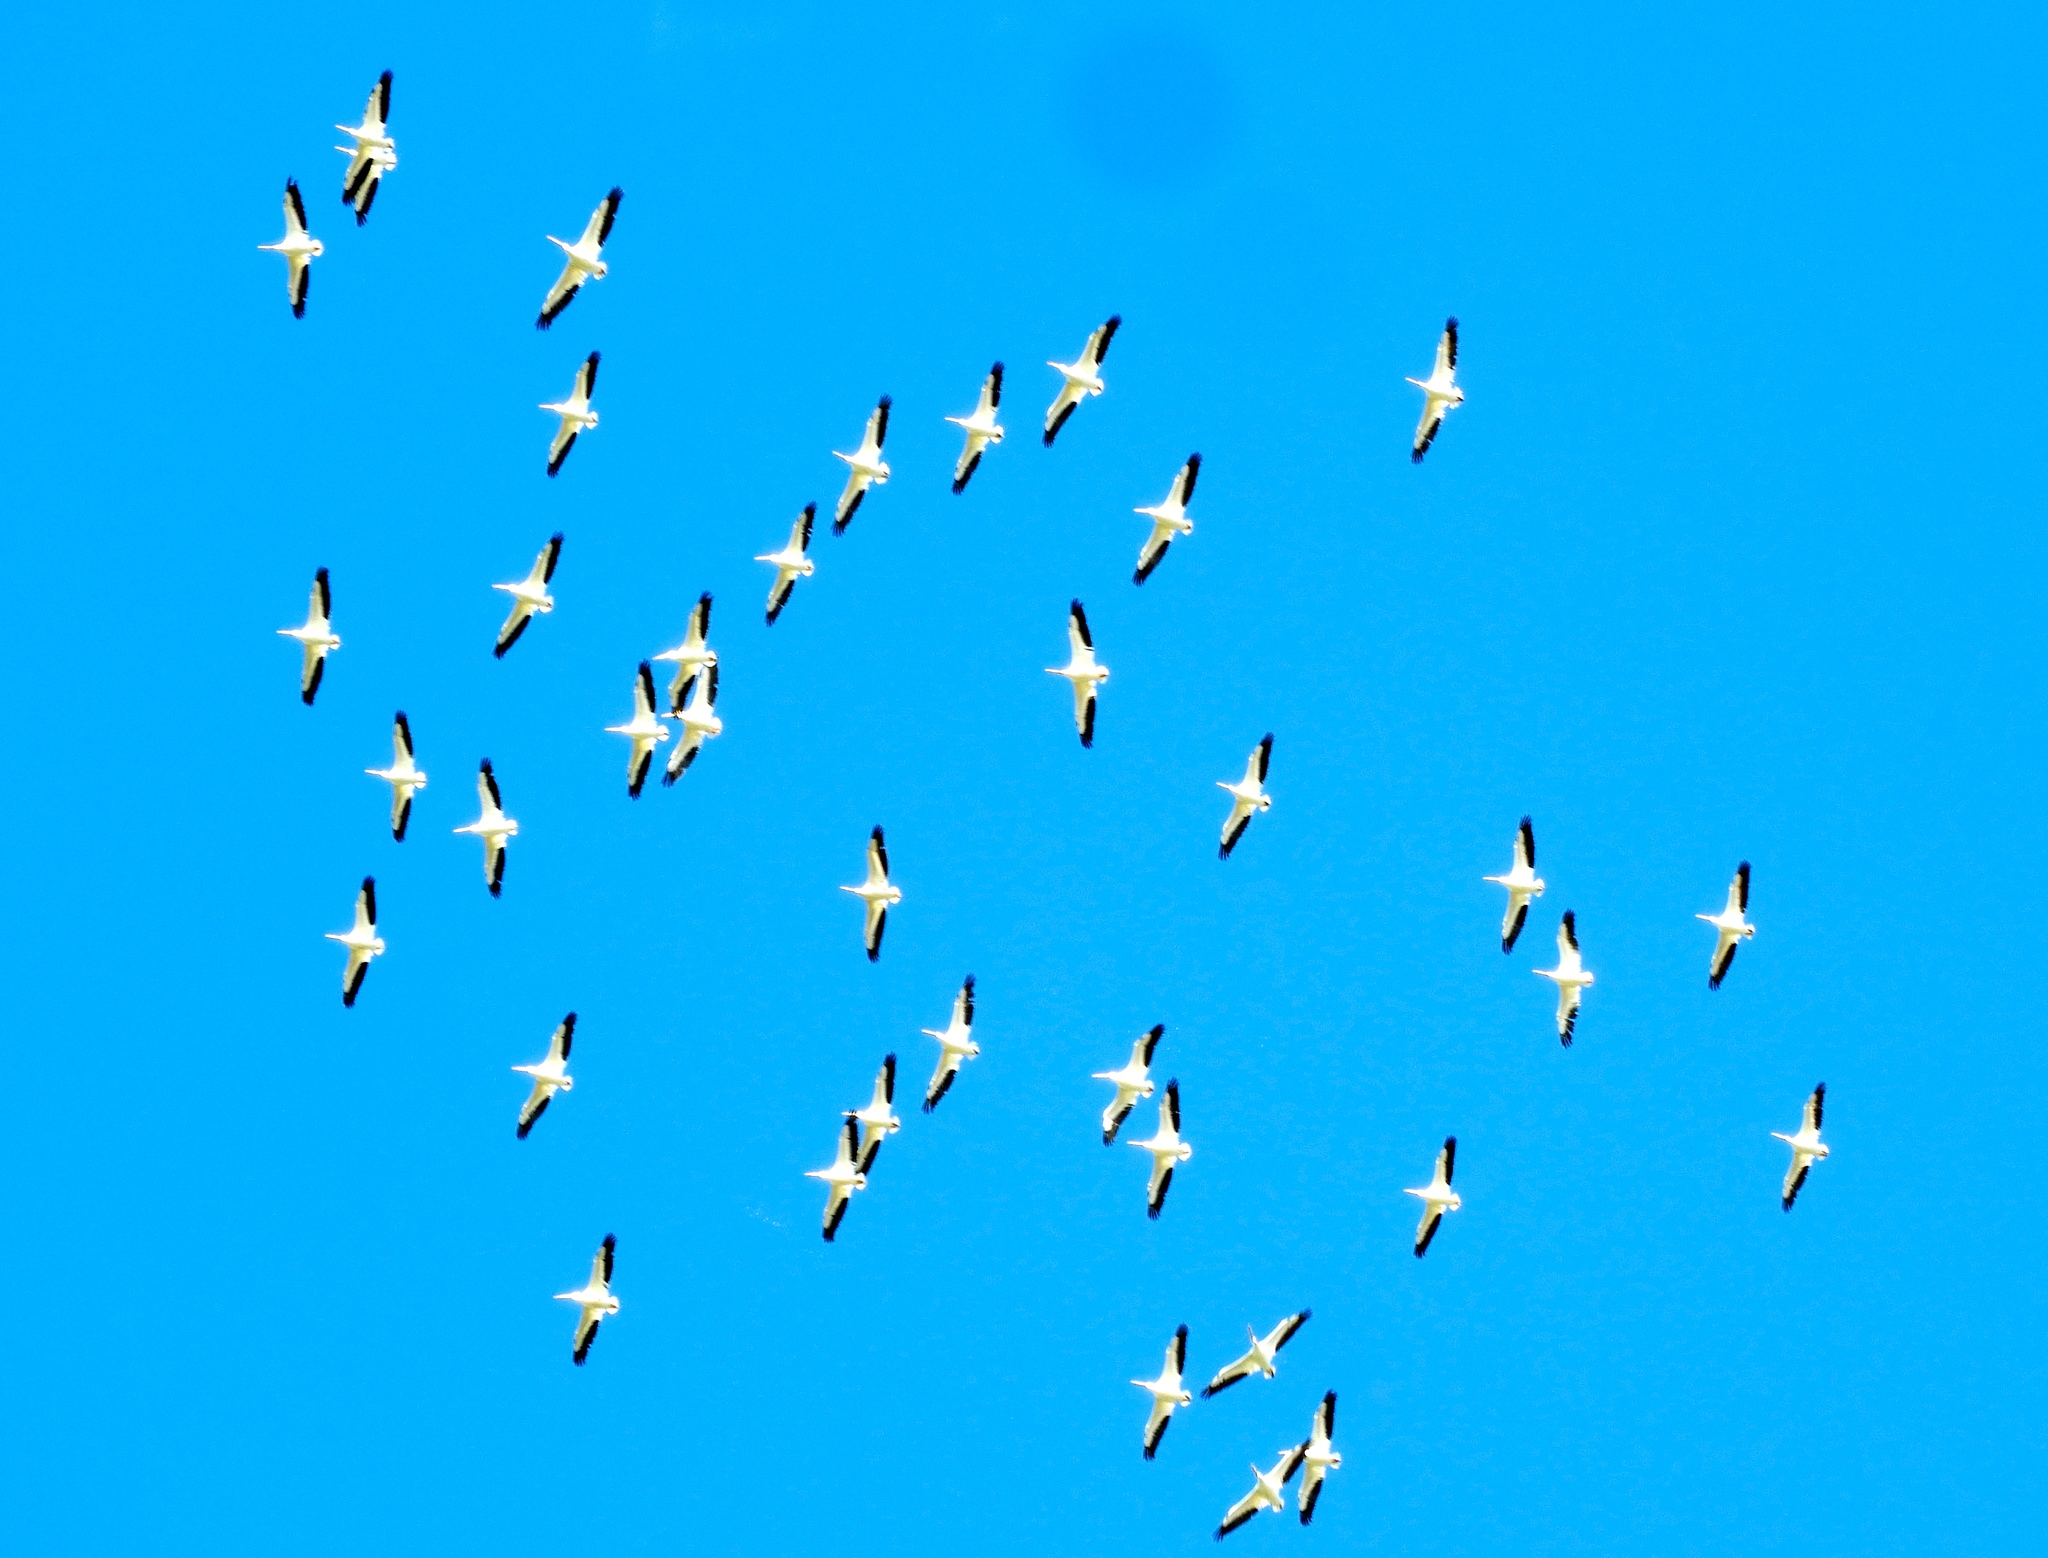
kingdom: Animalia
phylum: Chordata
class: Aves
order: Pelecaniformes
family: Pelecanidae
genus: Pelecanus
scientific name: Pelecanus erythrorhynchos
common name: American white pelican
